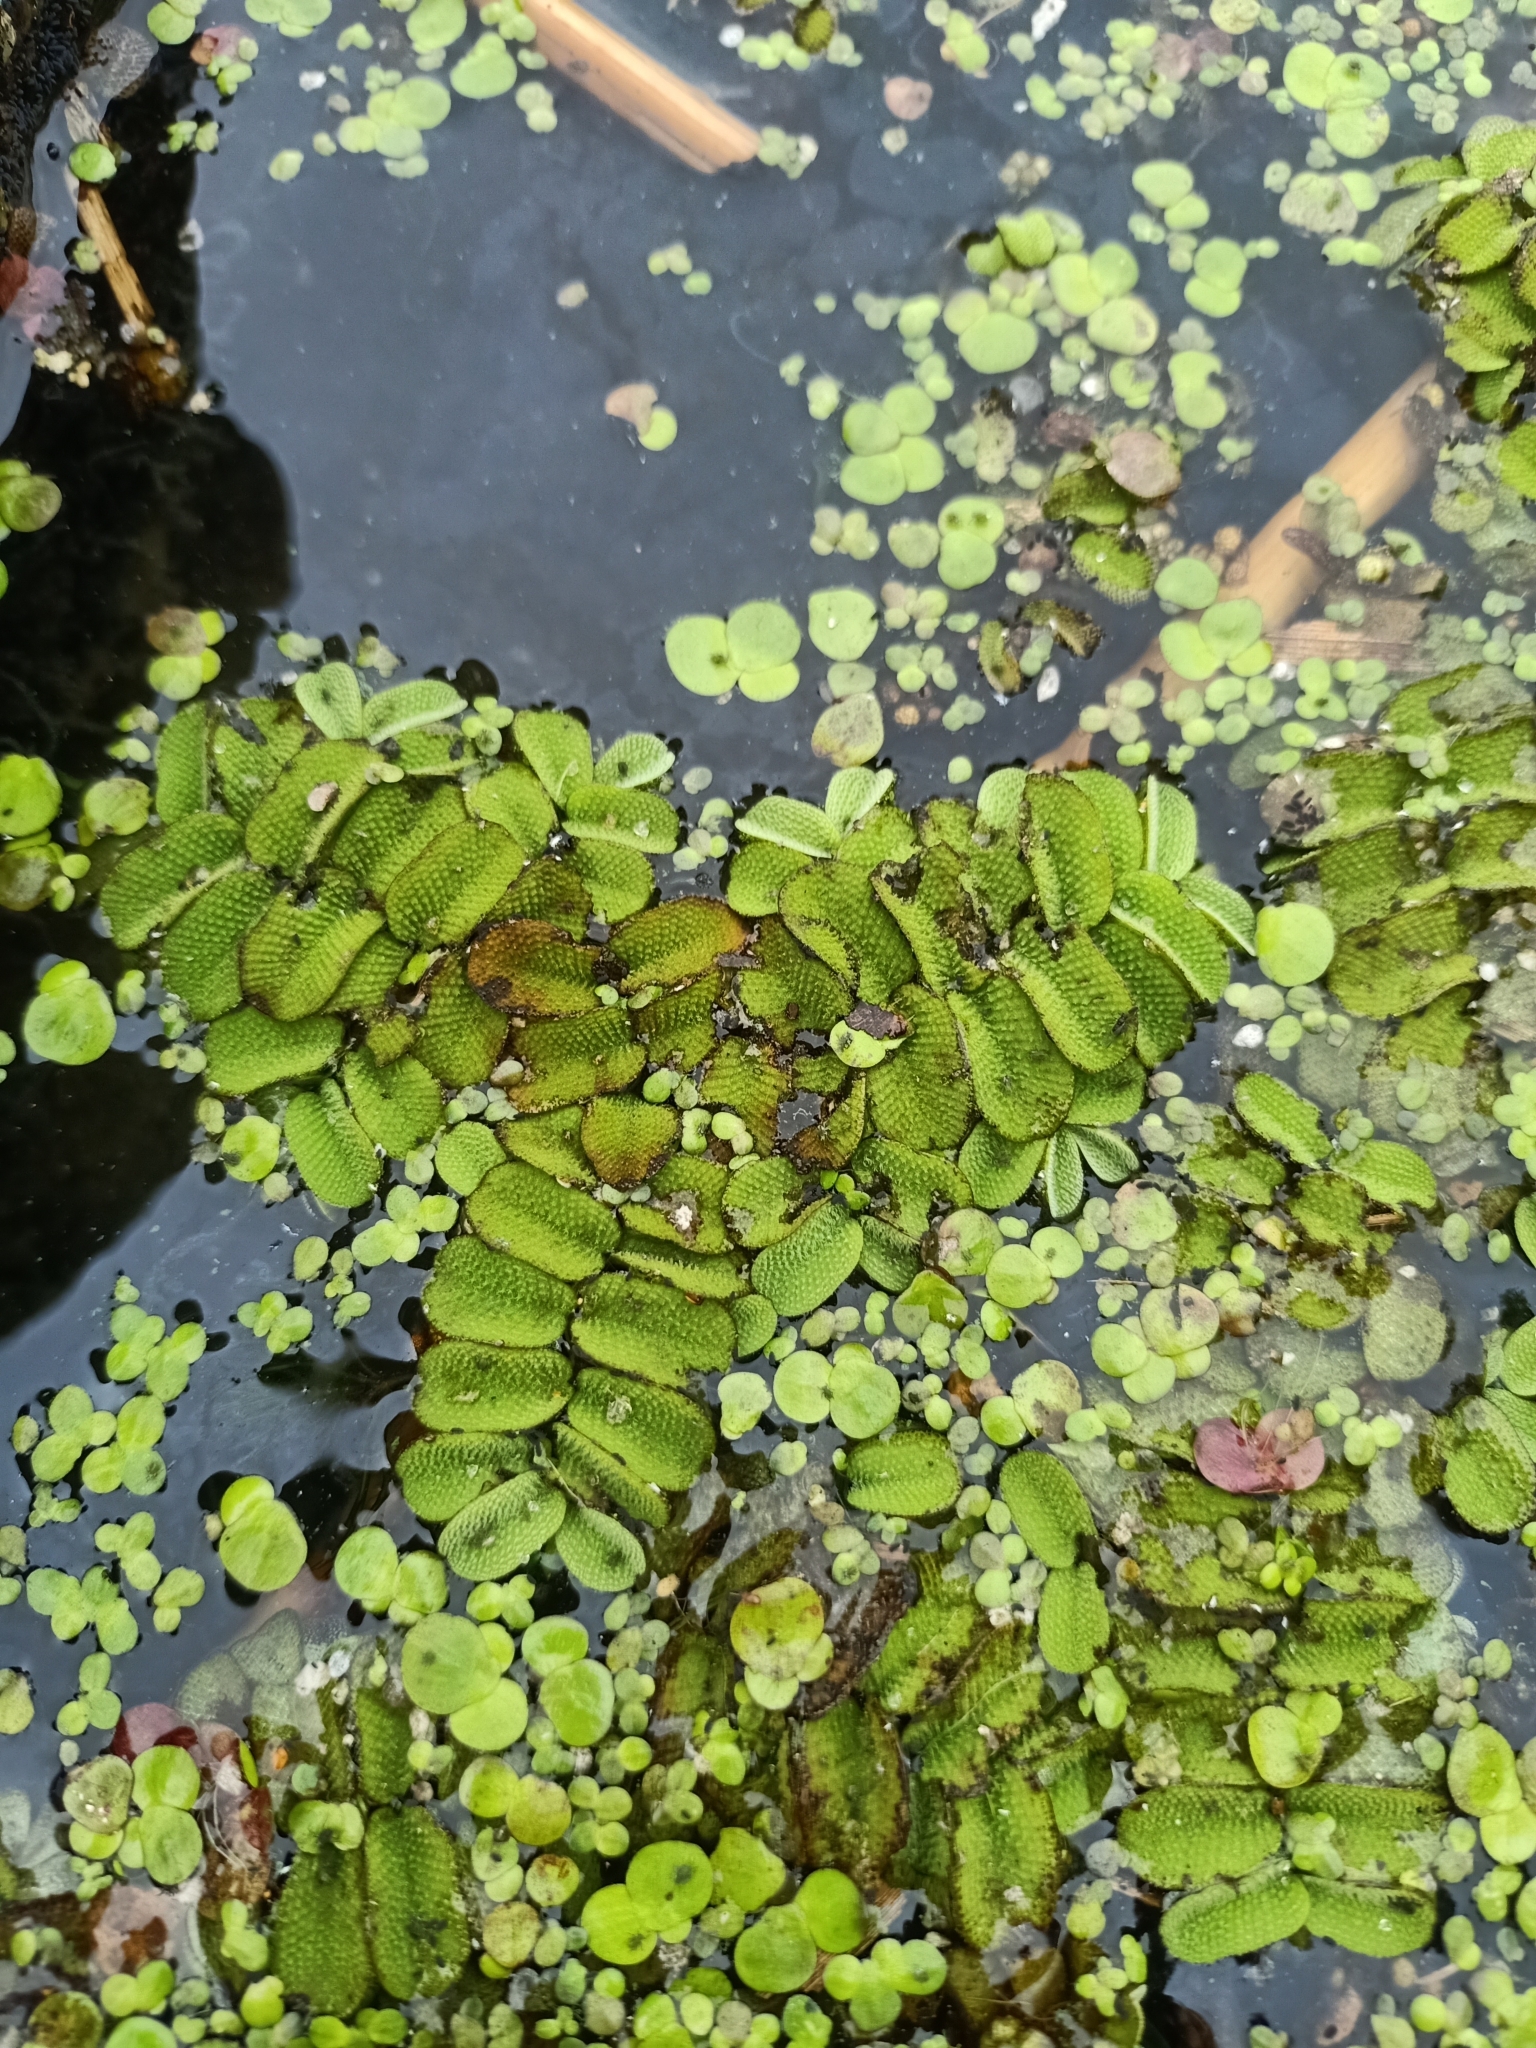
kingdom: Plantae
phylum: Tracheophyta
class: Polypodiopsida
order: Salviniales
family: Salviniaceae
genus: Salvinia
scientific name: Salvinia natans
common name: Floating fern
